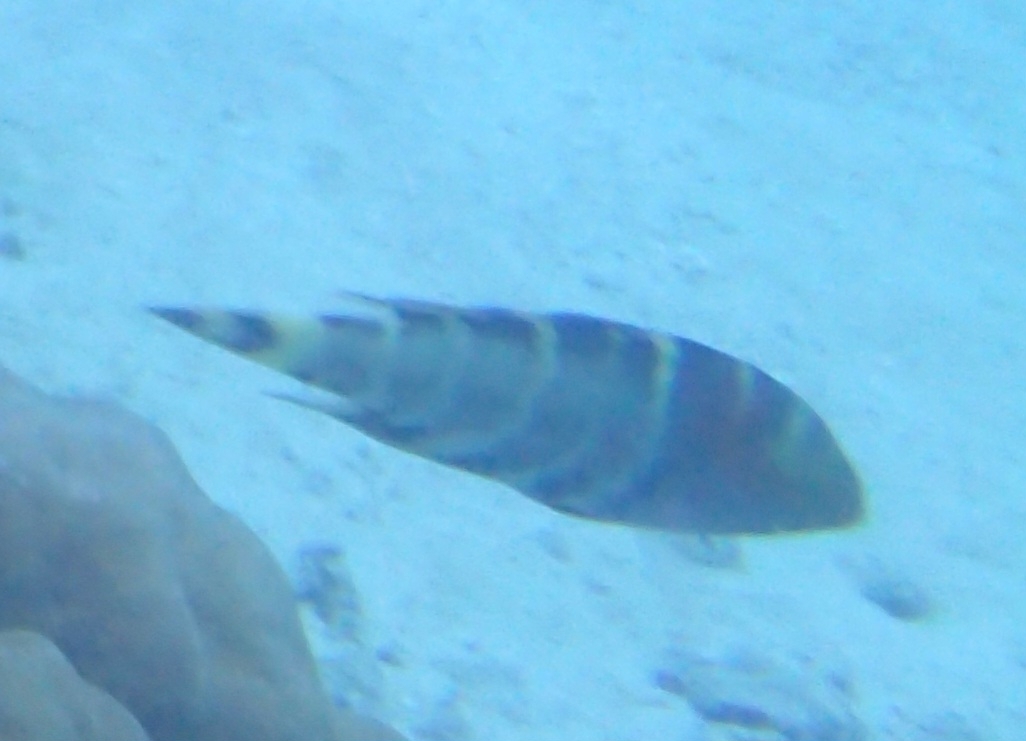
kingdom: Animalia
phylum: Chordata
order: Perciformes
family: Labridae
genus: Cheilinus
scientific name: Cheilinus fasciatus
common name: Red-breasted wrasse
